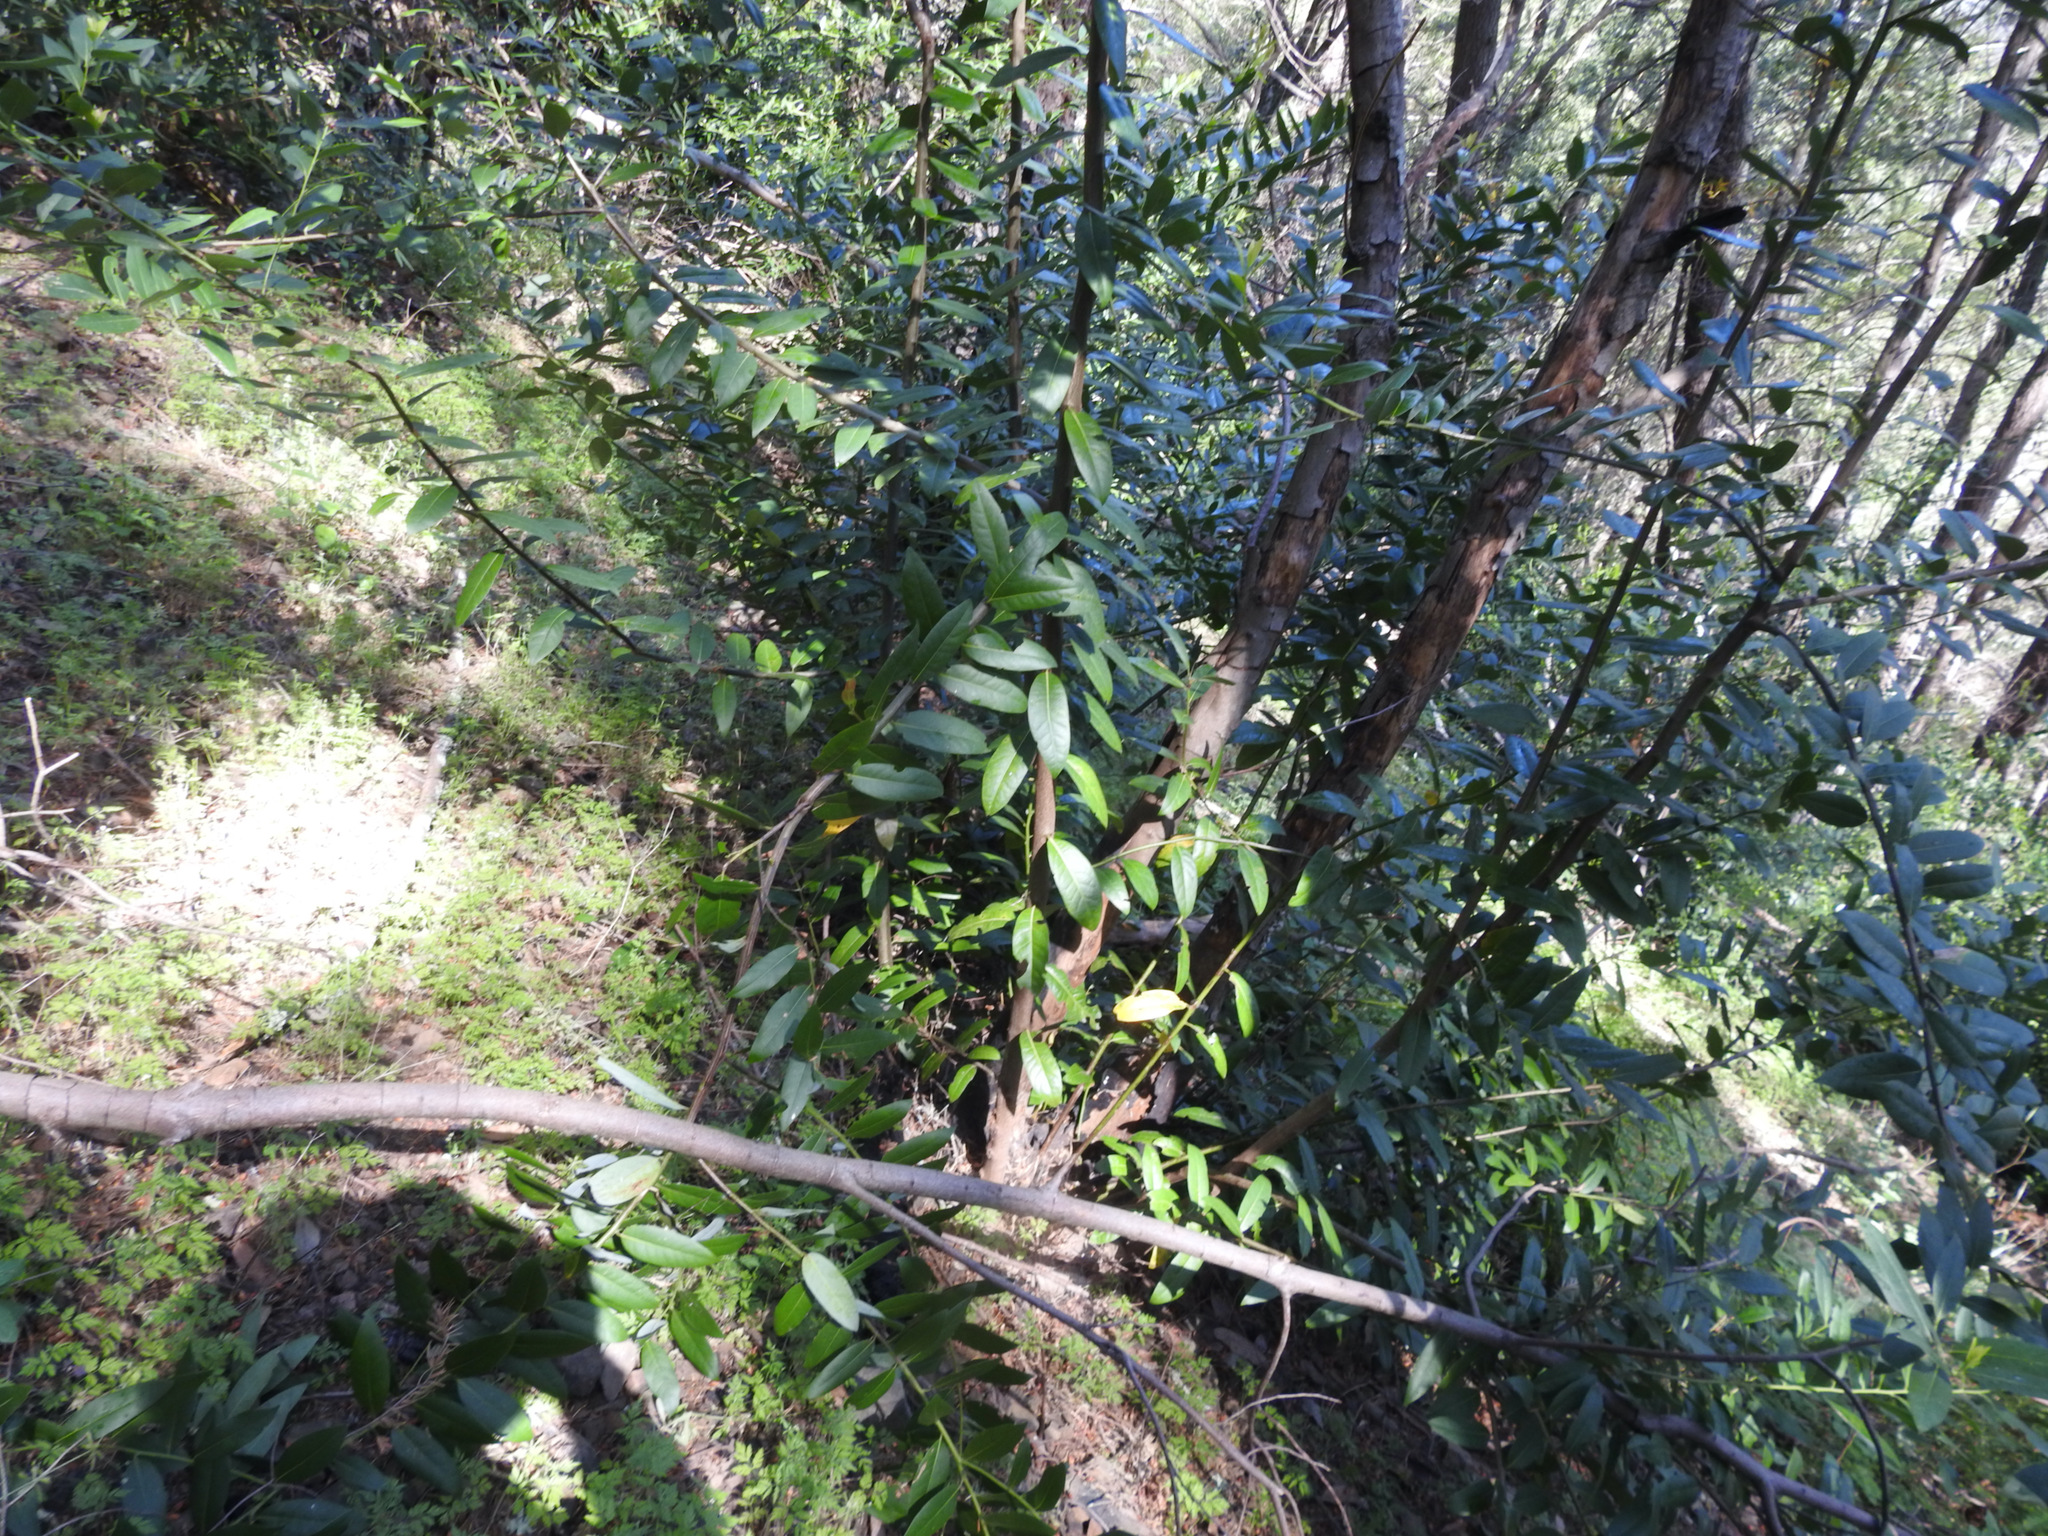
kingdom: Plantae
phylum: Tracheophyta
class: Magnoliopsida
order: Laurales
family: Lauraceae
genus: Umbellularia
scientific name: Umbellularia californica
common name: California bay
